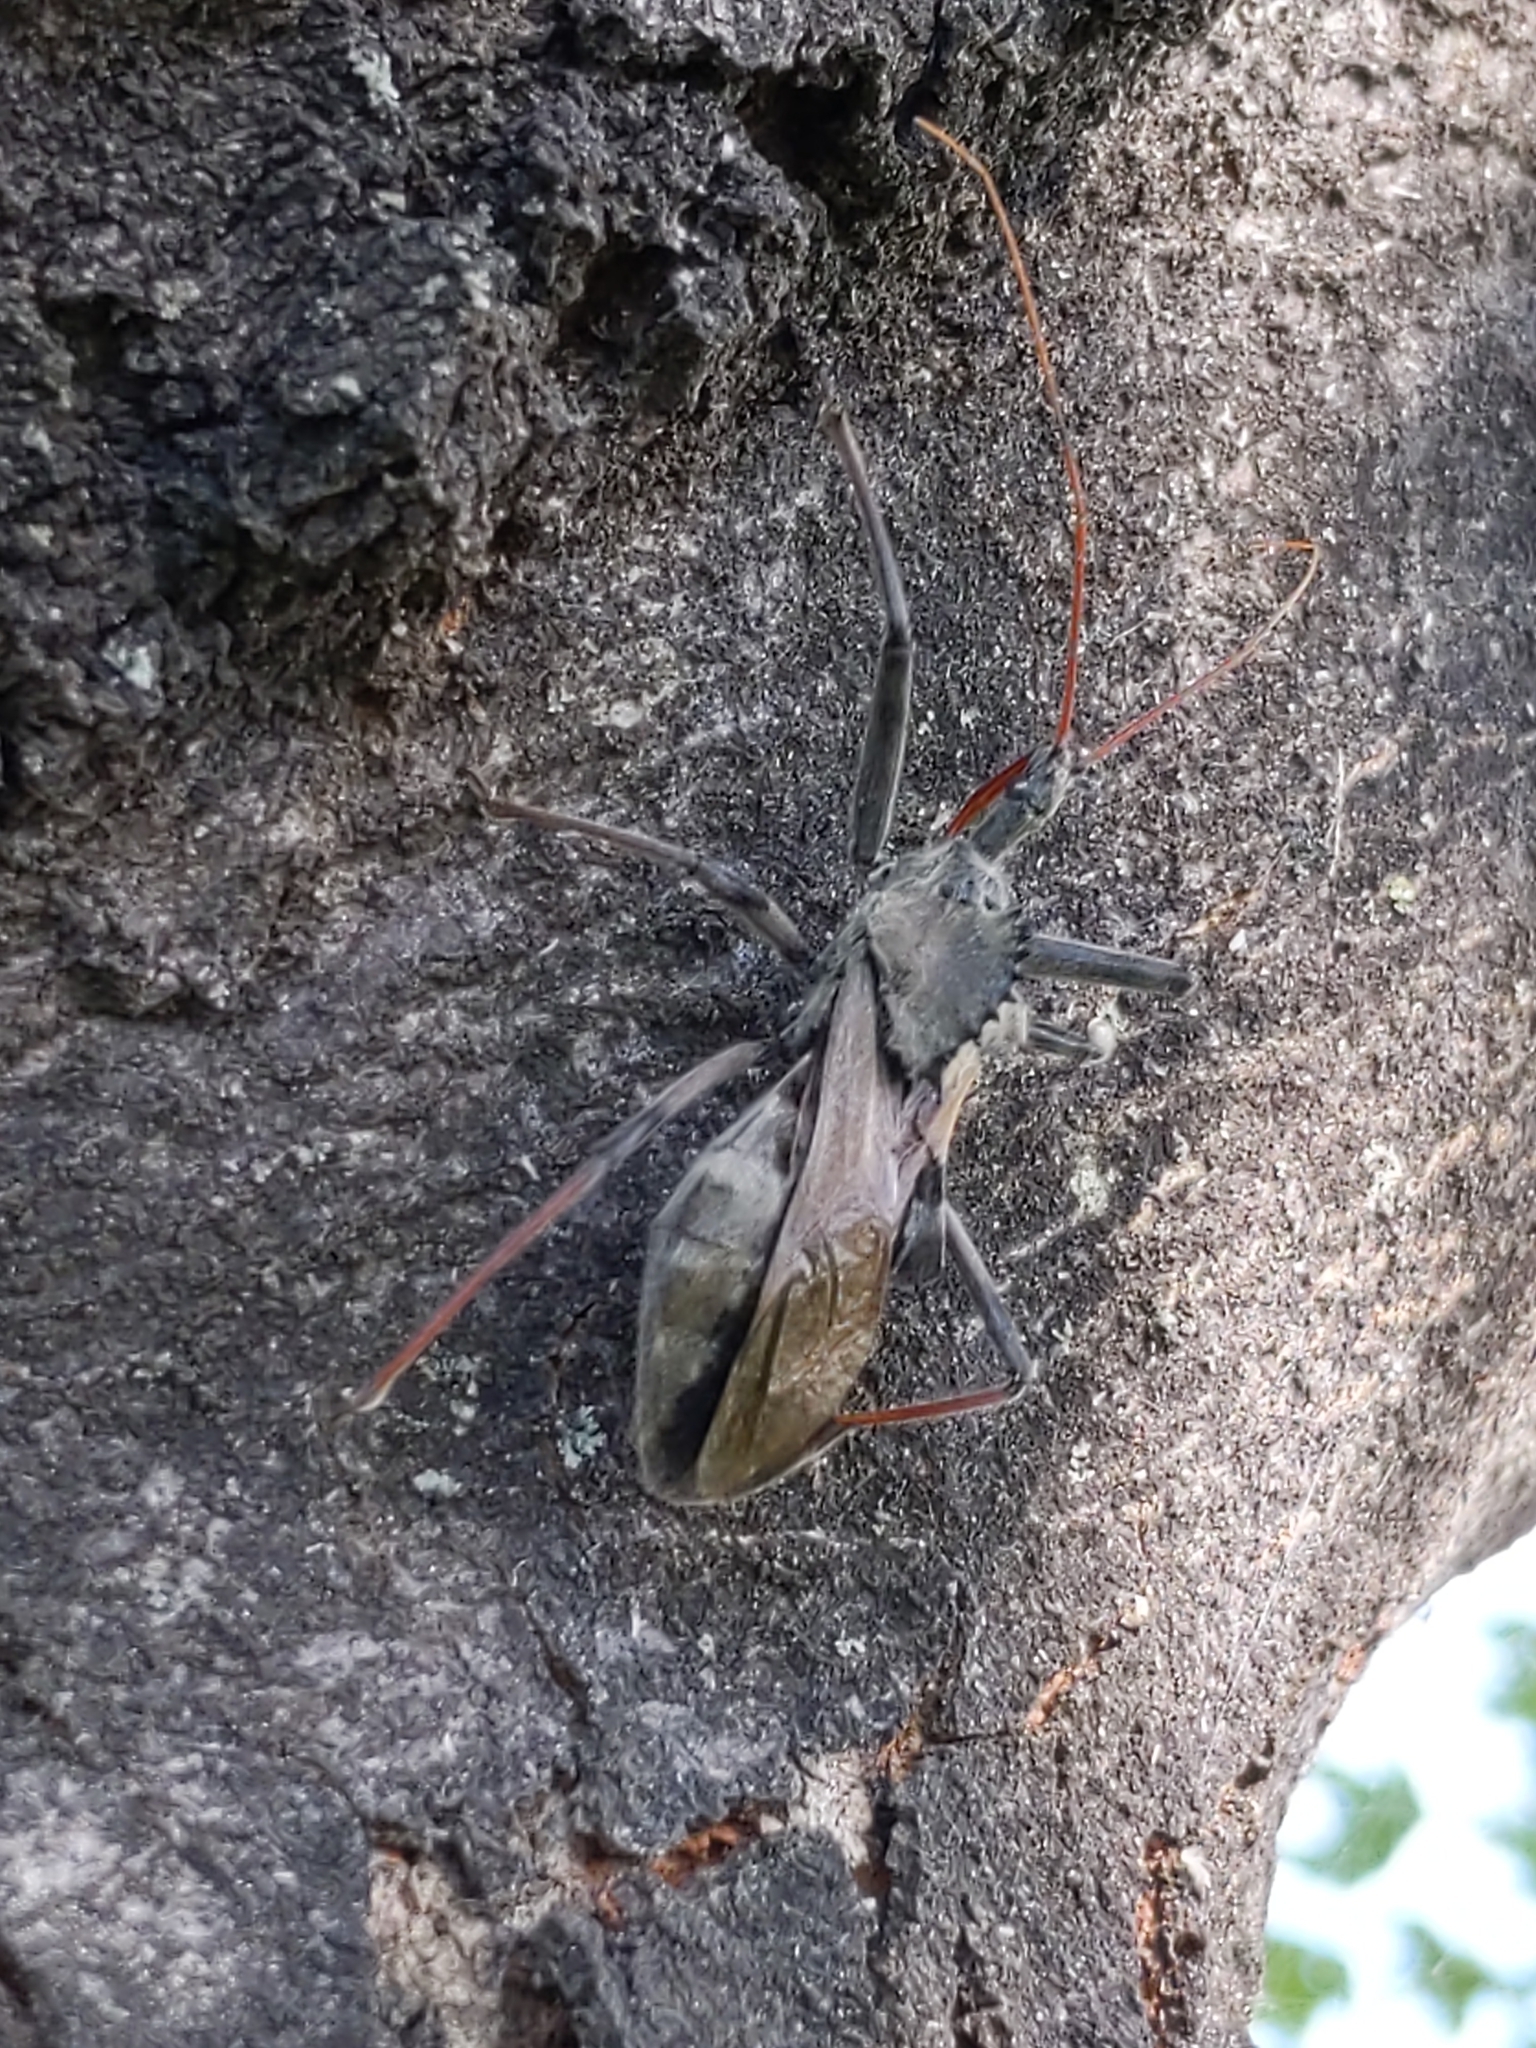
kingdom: Animalia
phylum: Arthropoda
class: Insecta
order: Hemiptera
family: Reduviidae
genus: Arilus
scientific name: Arilus cristatus
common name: North american wheel bug
